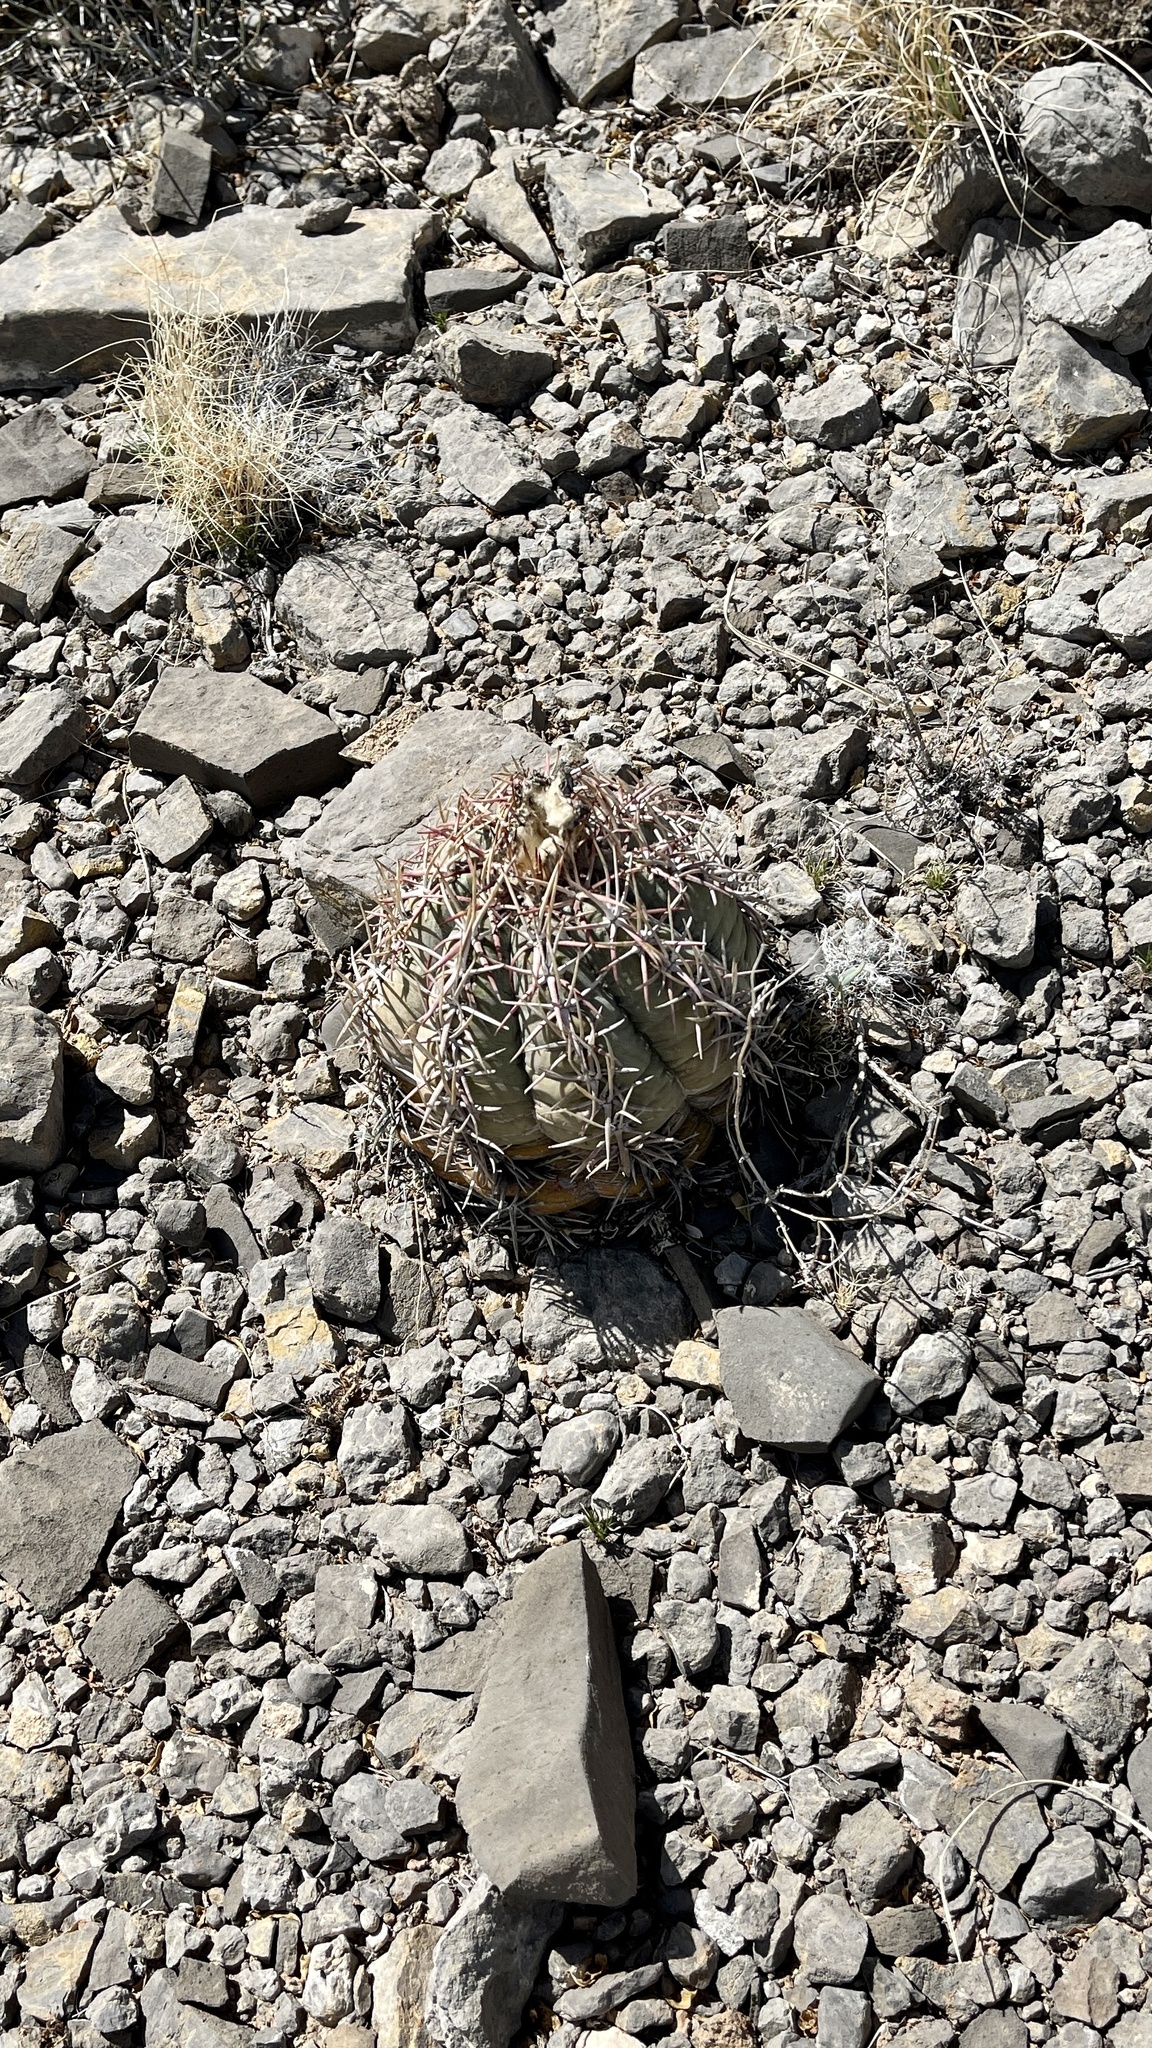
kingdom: Plantae
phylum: Tracheophyta
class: Magnoliopsida
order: Caryophyllales
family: Cactaceae
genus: Echinocactus
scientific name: Echinocactus horizonthalonius
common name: Devilshead
